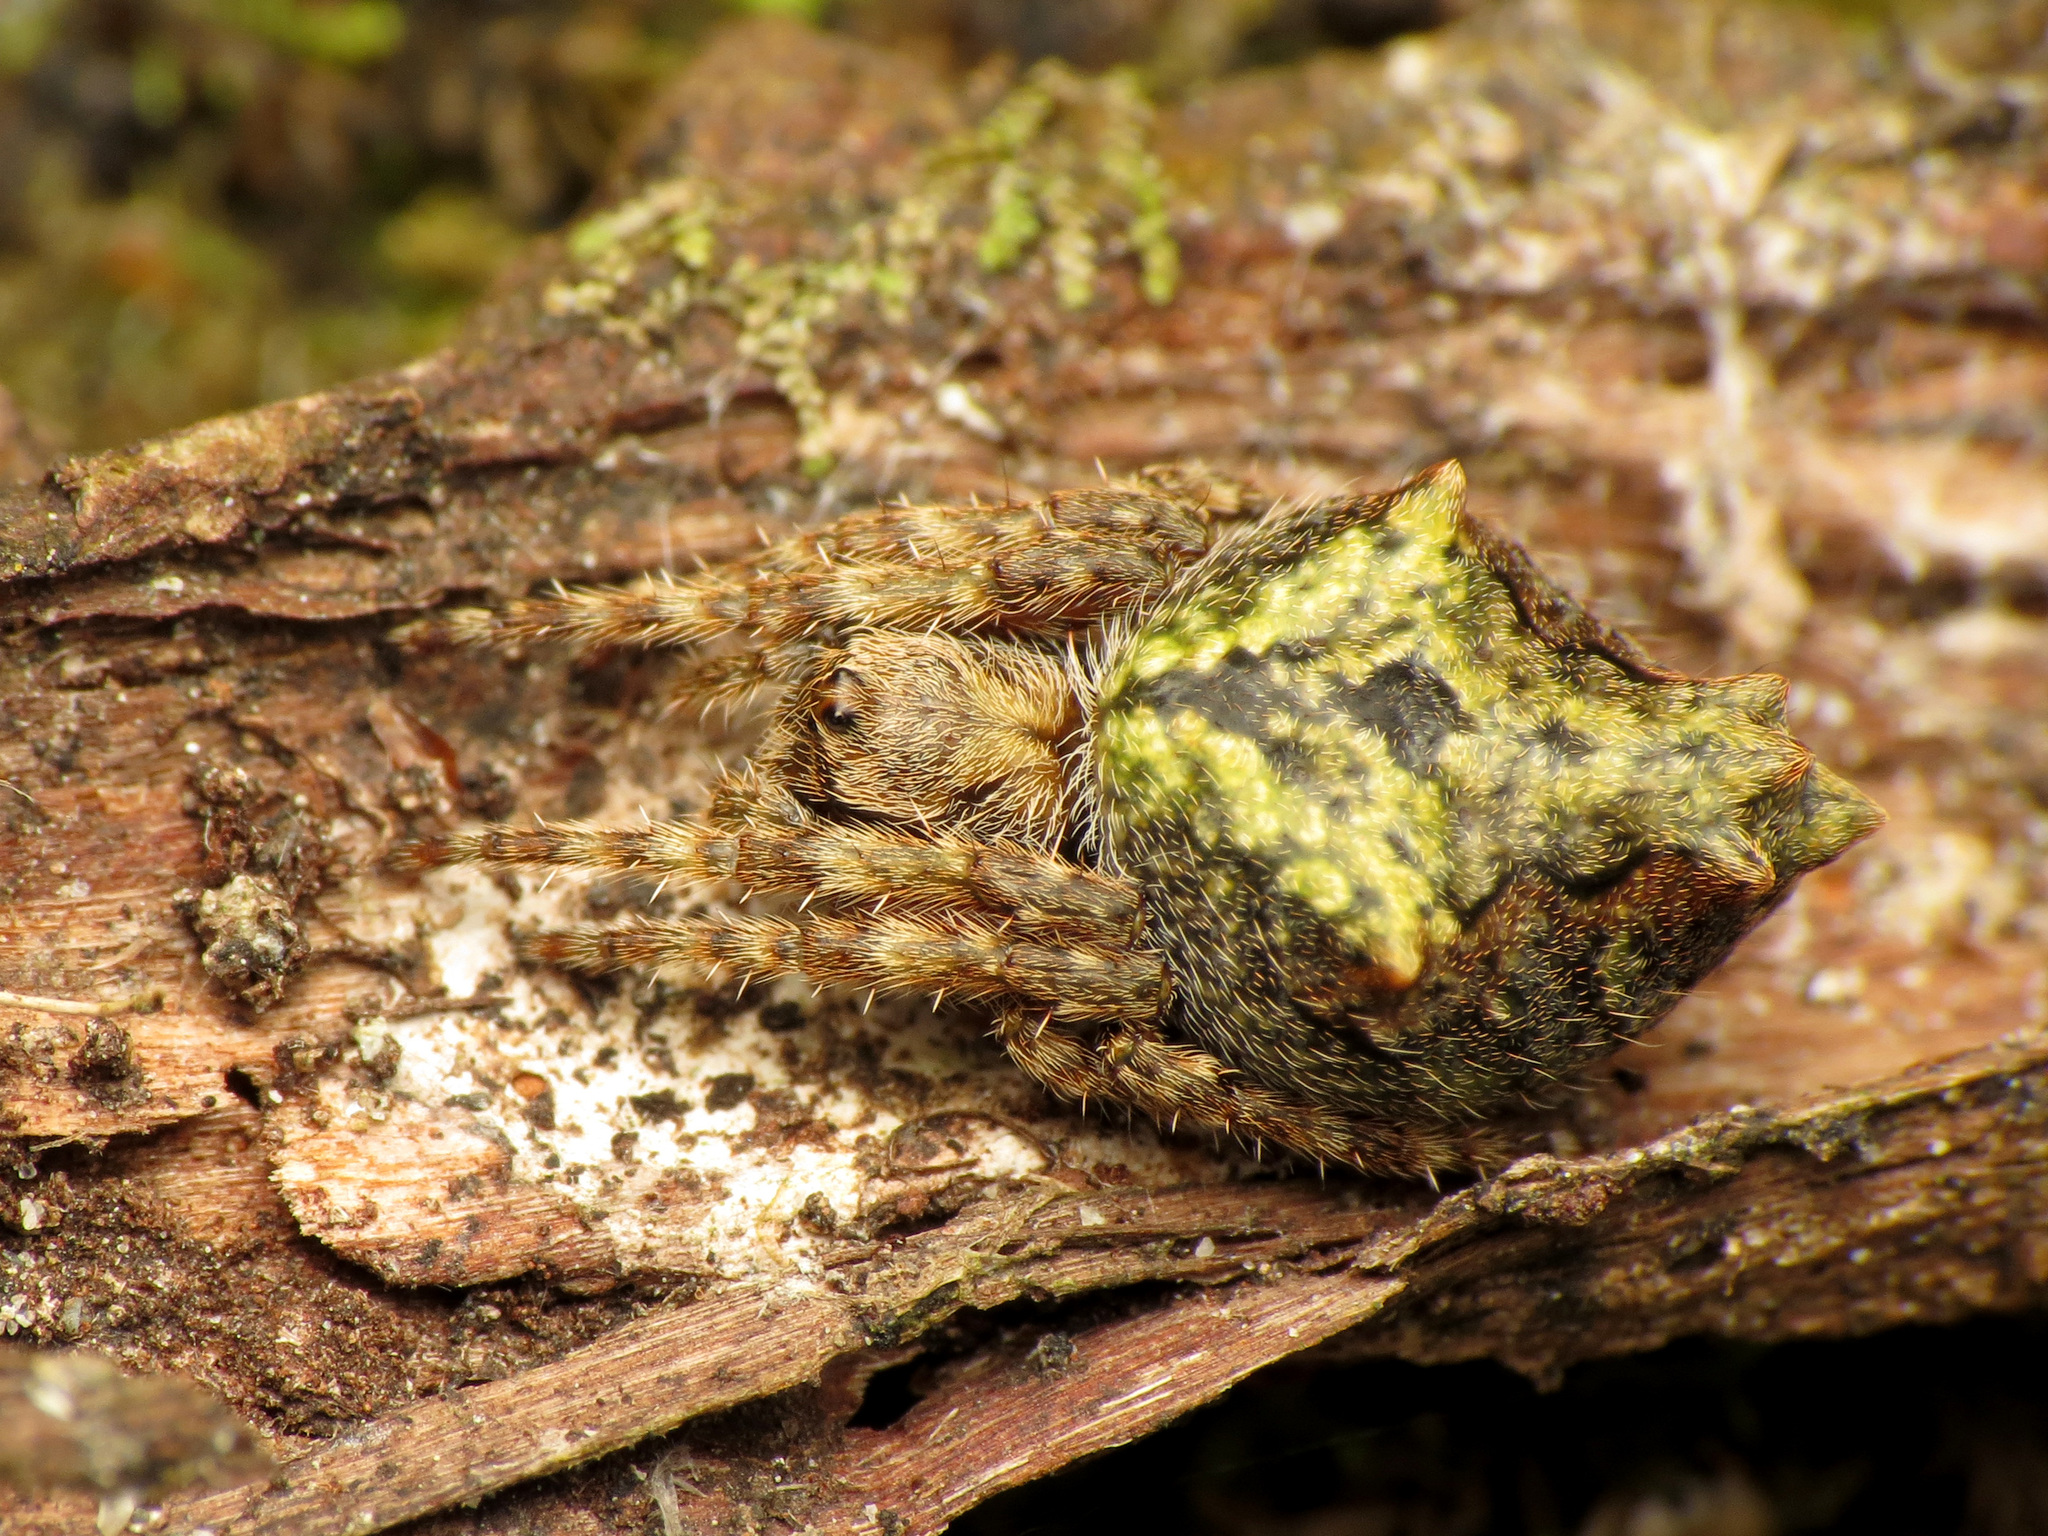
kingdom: Animalia
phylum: Arthropoda
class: Arachnida
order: Araneae
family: Araneidae
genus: Eriophora
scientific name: Eriophora pustulosa
